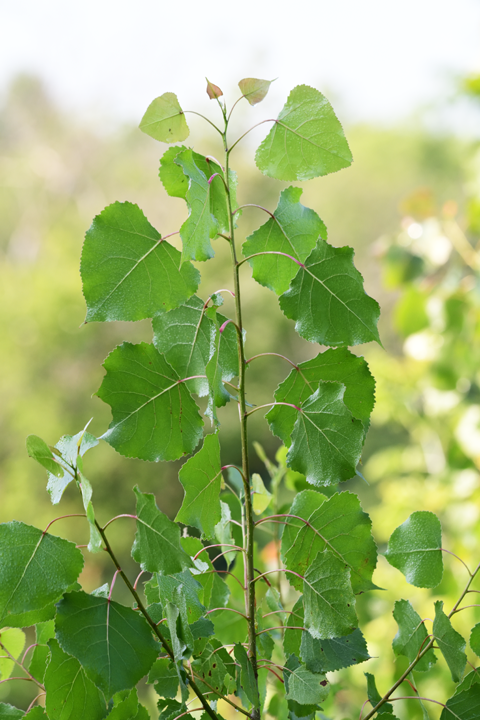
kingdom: Plantae
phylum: Tracheophyta
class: Magnoliopsida
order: Malpighiales
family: Salicaceae
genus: Populus
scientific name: Populus deltoides
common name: Eastern cottonwood
